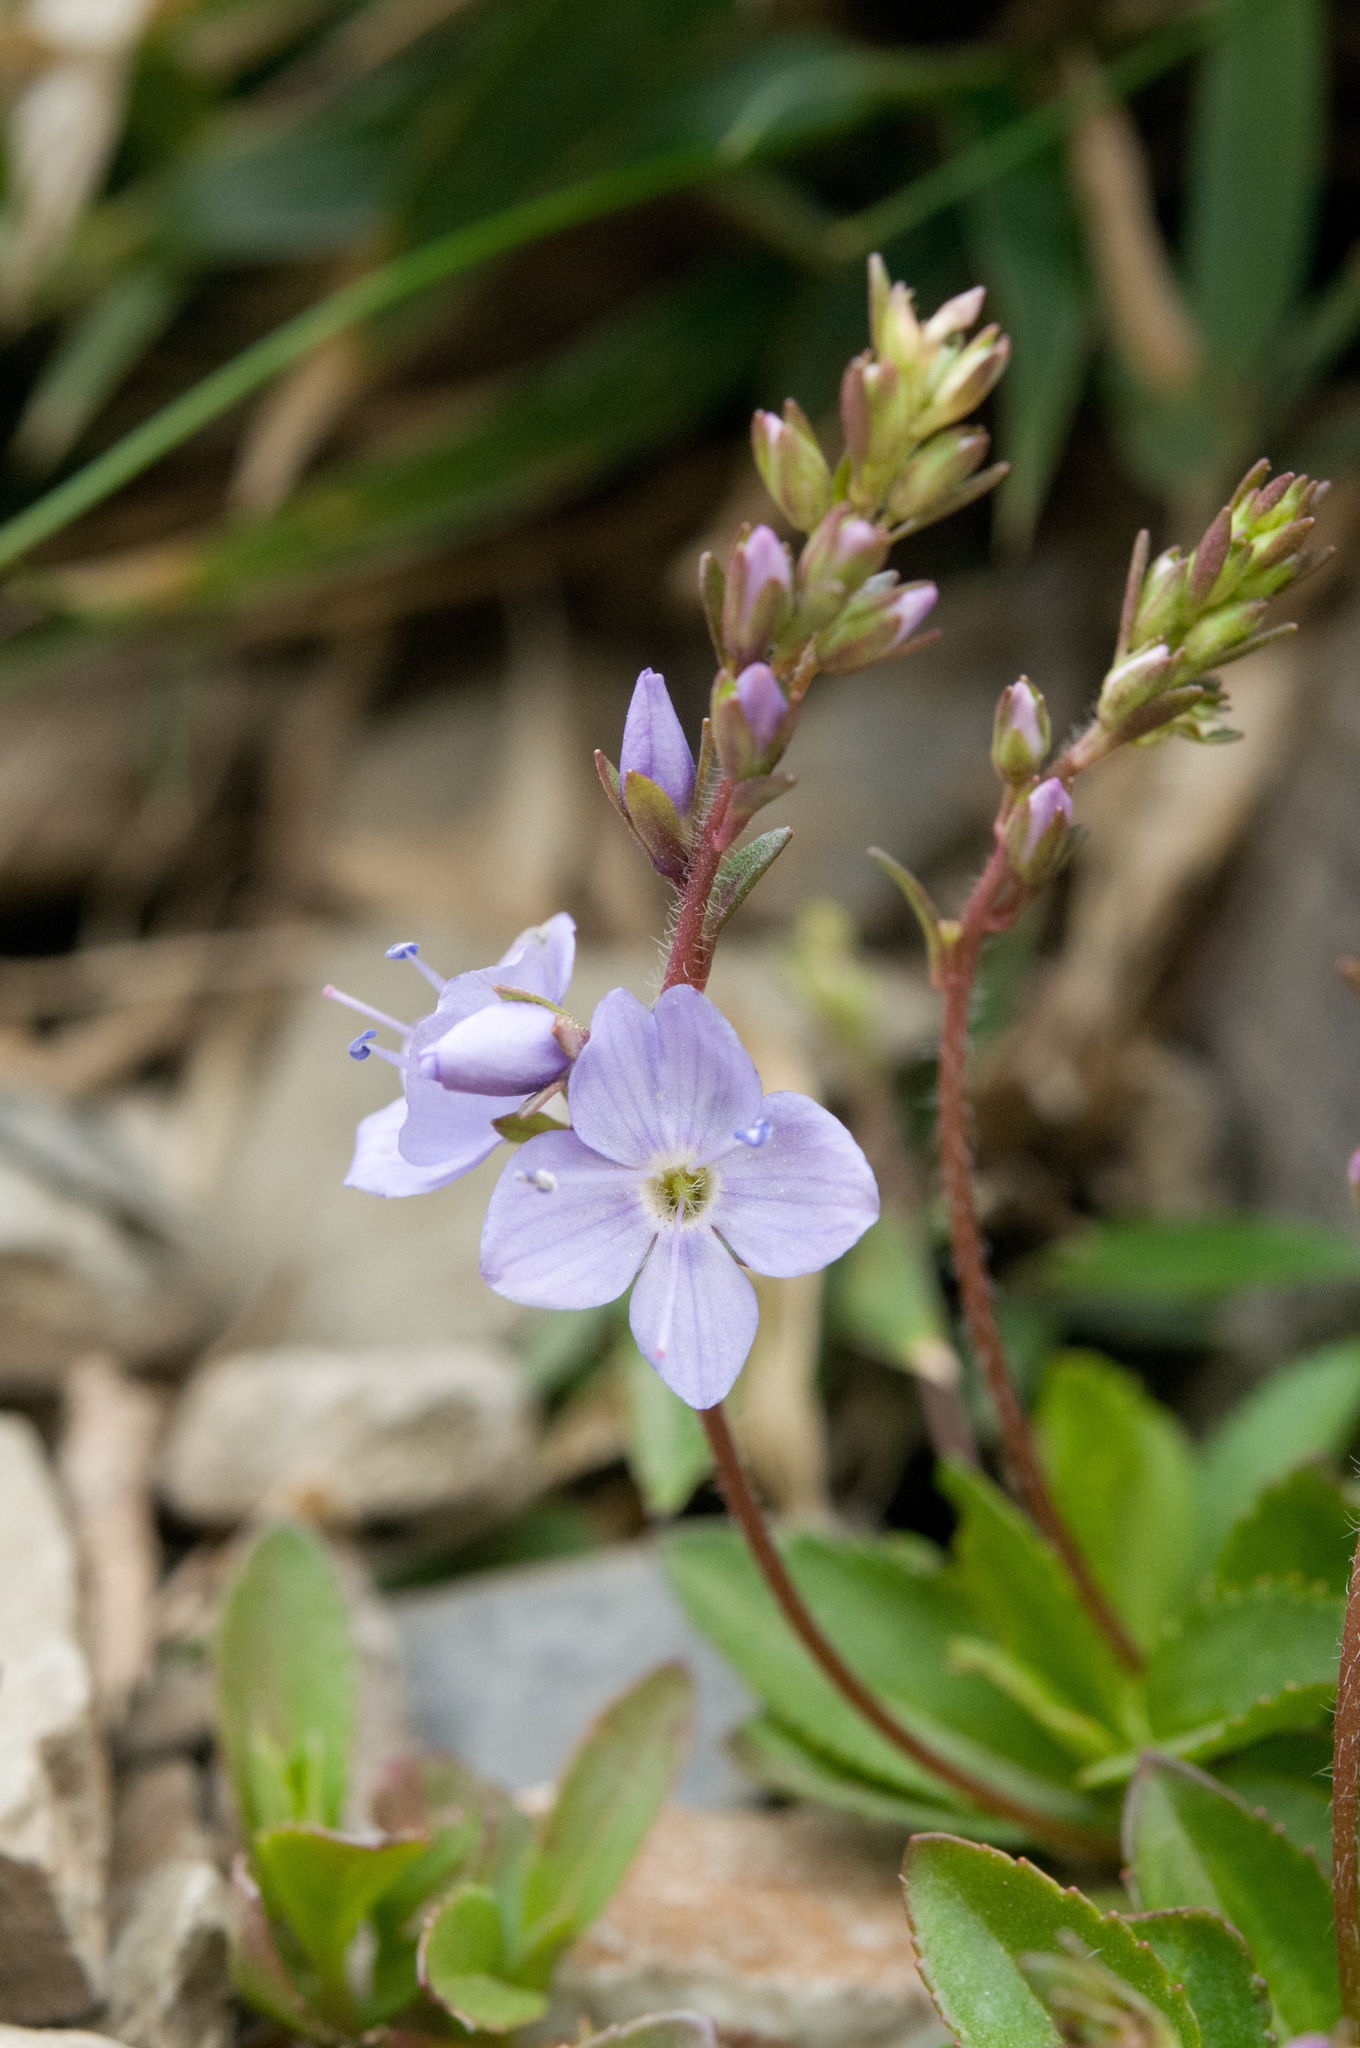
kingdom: Plantae
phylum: Tracheophyta
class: Magnoliopsida
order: Lamiales
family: Plantaginaceae
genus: Veronica
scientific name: Veronica morrisonicola
